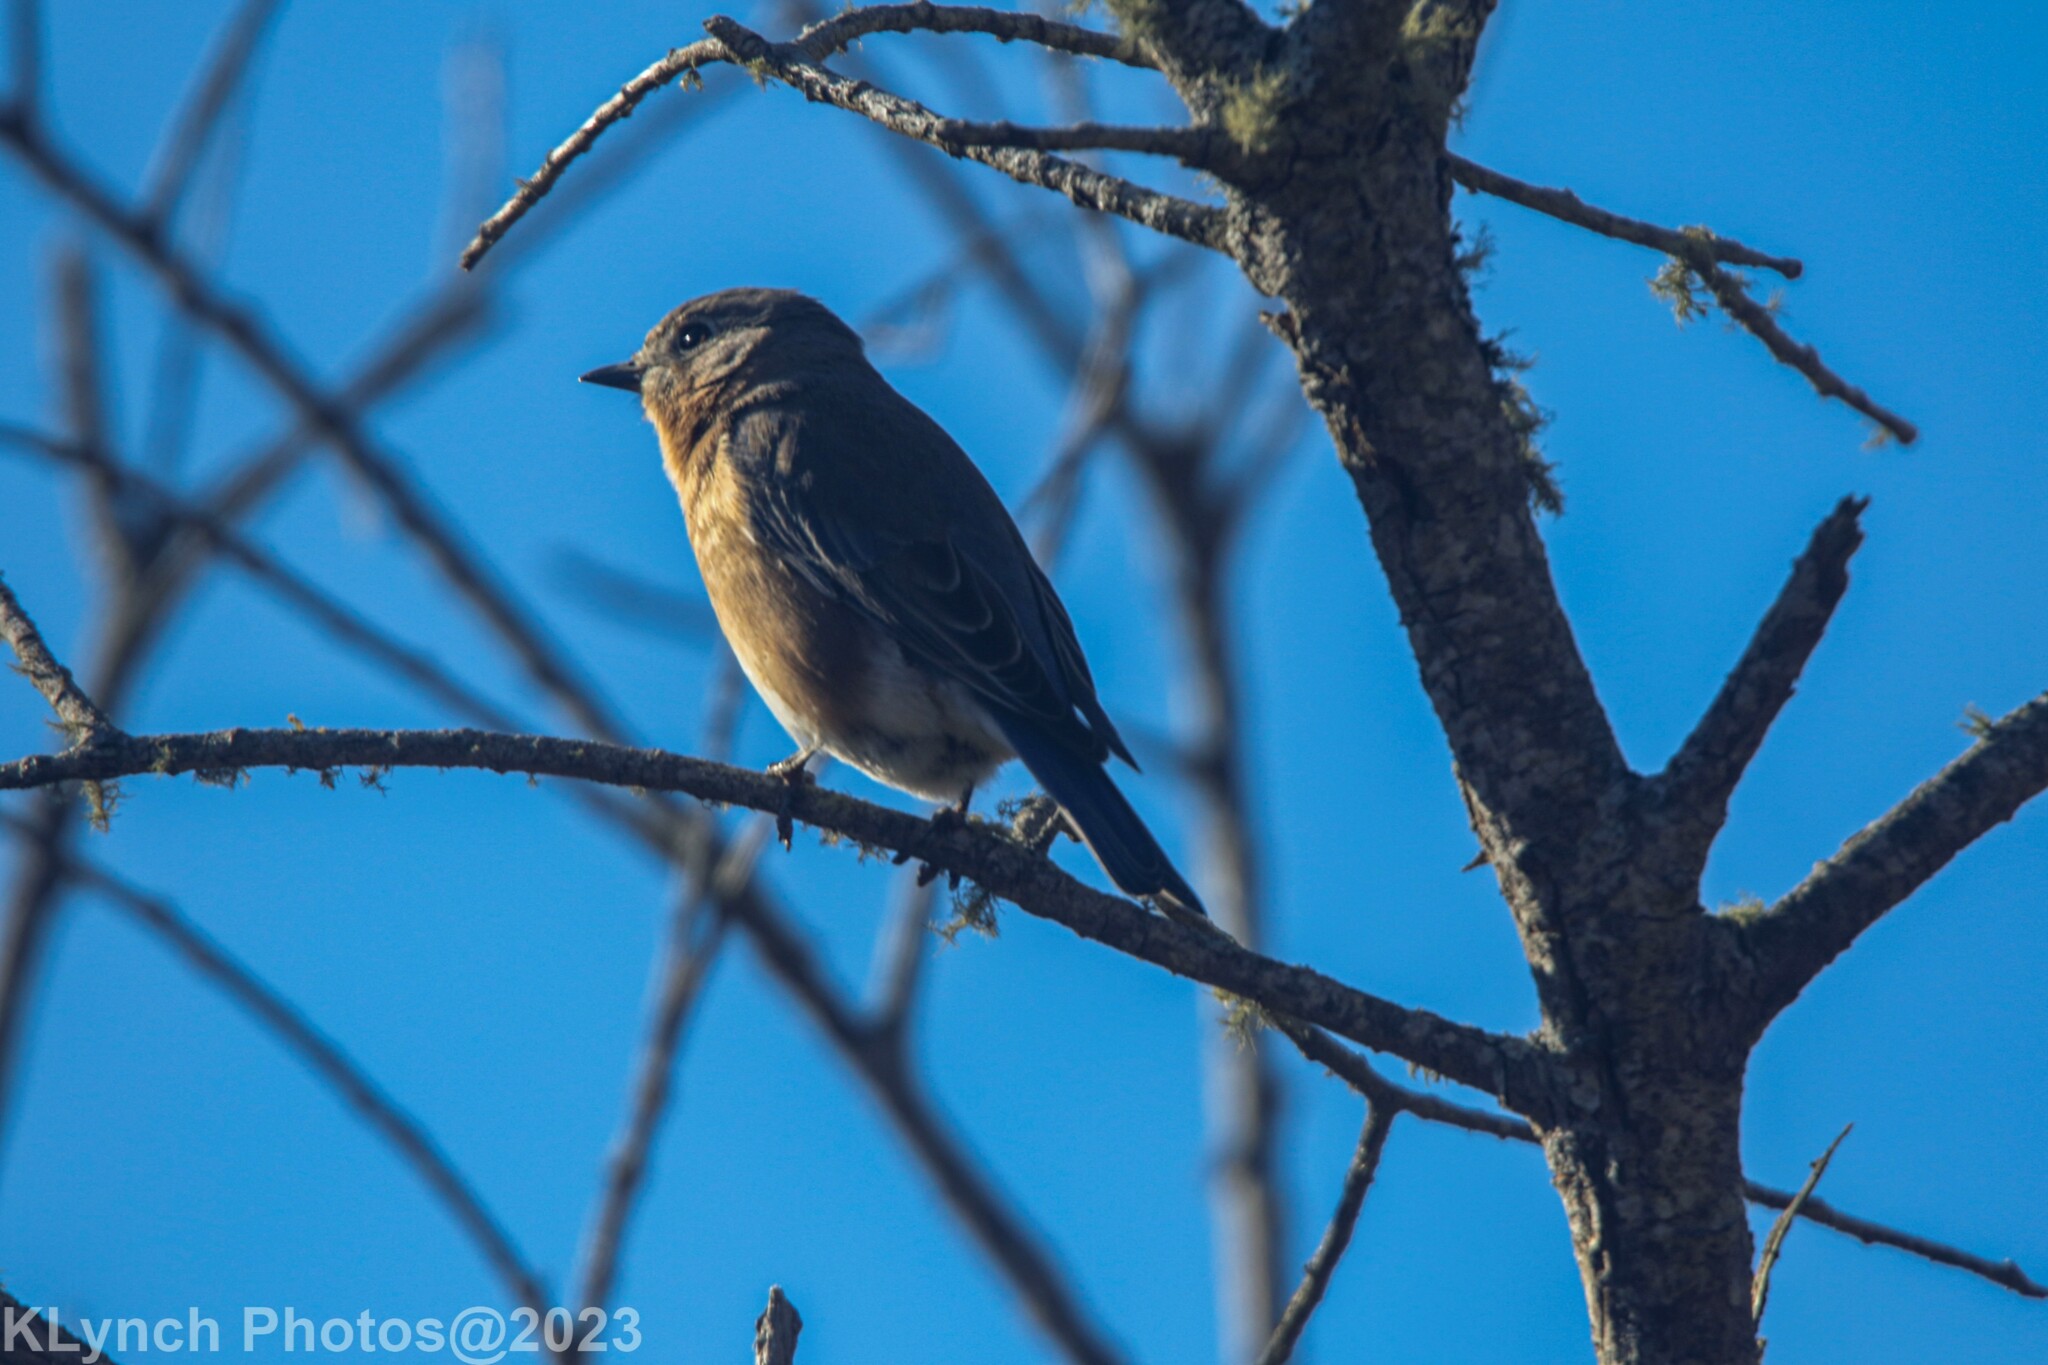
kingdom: Animalia
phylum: Chordata
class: Aves
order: Passeriformes
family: Turdidae
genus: Sialia
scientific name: Sialia sialis
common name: Eastern bluebird
